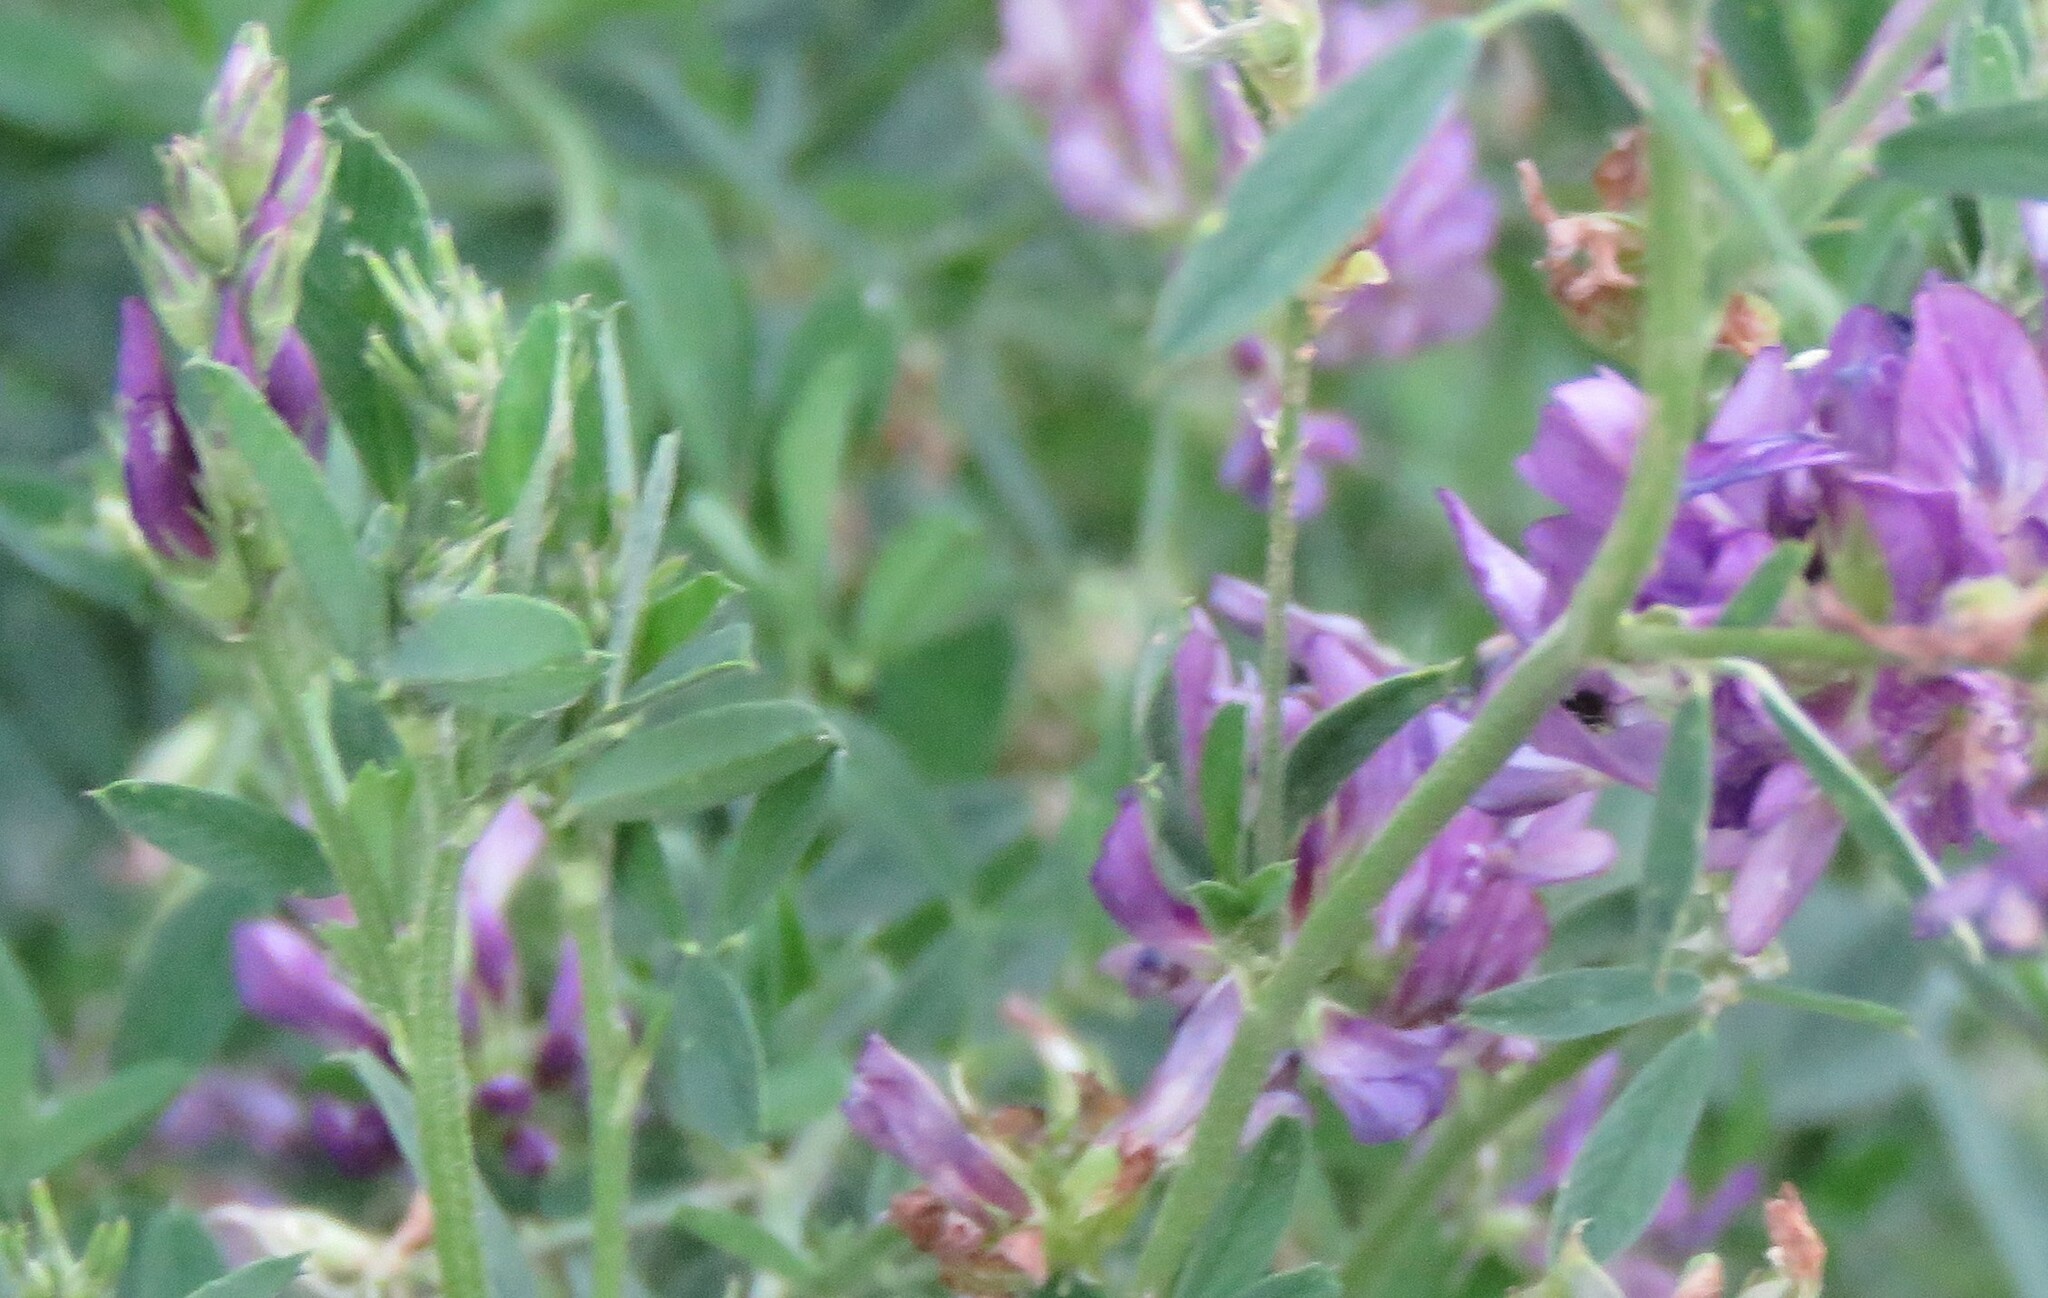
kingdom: Plantae
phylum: Tracheophyta
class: Magnoliopsida
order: Fabales
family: Fabaceae
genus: Medicago
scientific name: Medicago sativa
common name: Alfalfa
